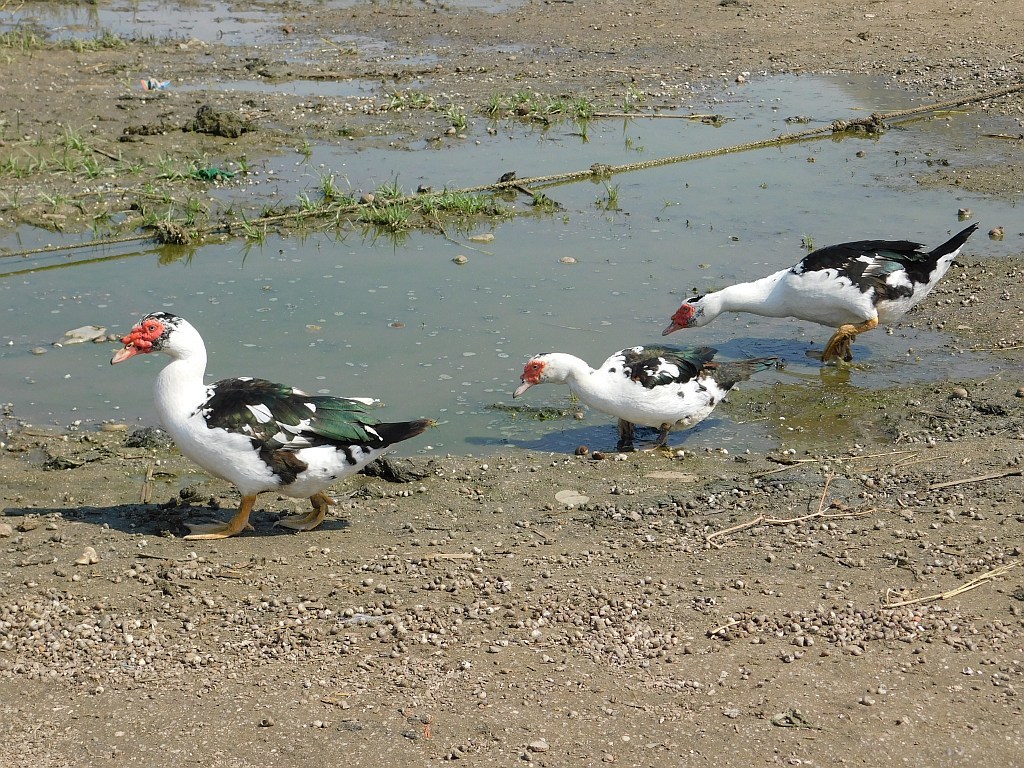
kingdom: Animalia
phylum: Chordata
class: Aves
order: Anseriformes
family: Anatidae
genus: Cairina
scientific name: Cairina moschata
